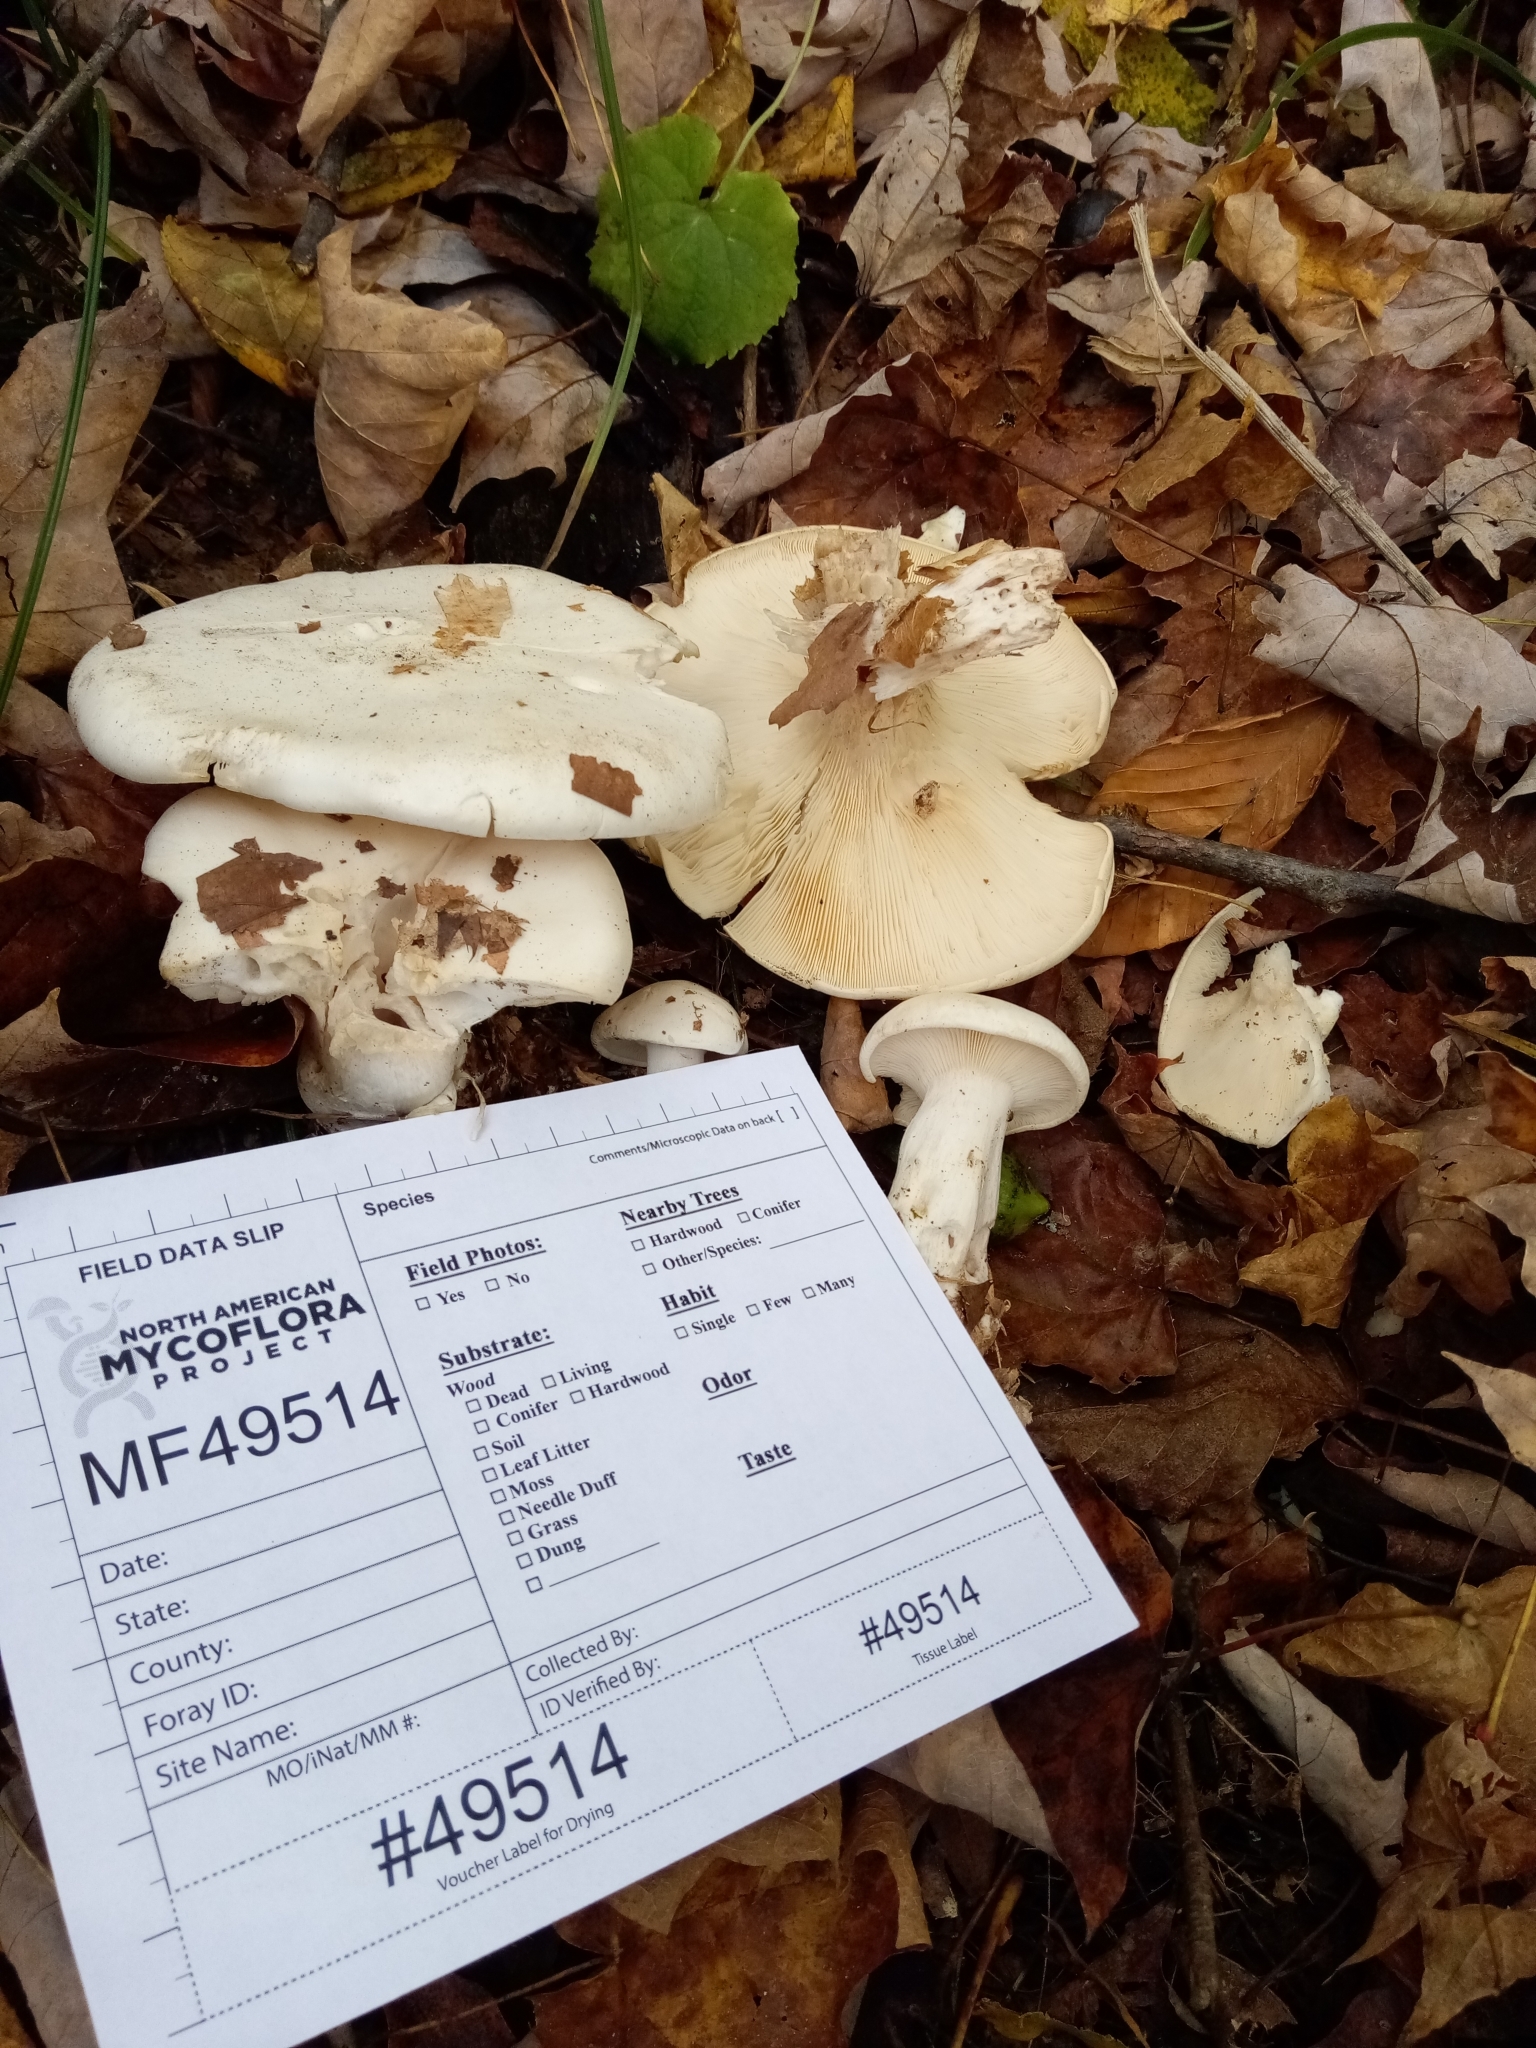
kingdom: Fungi
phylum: Basidiomycota
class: Agaricomycetes
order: Agaricales
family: Tricholomataceae
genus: Clitocybe
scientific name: Clitocybe robusta
